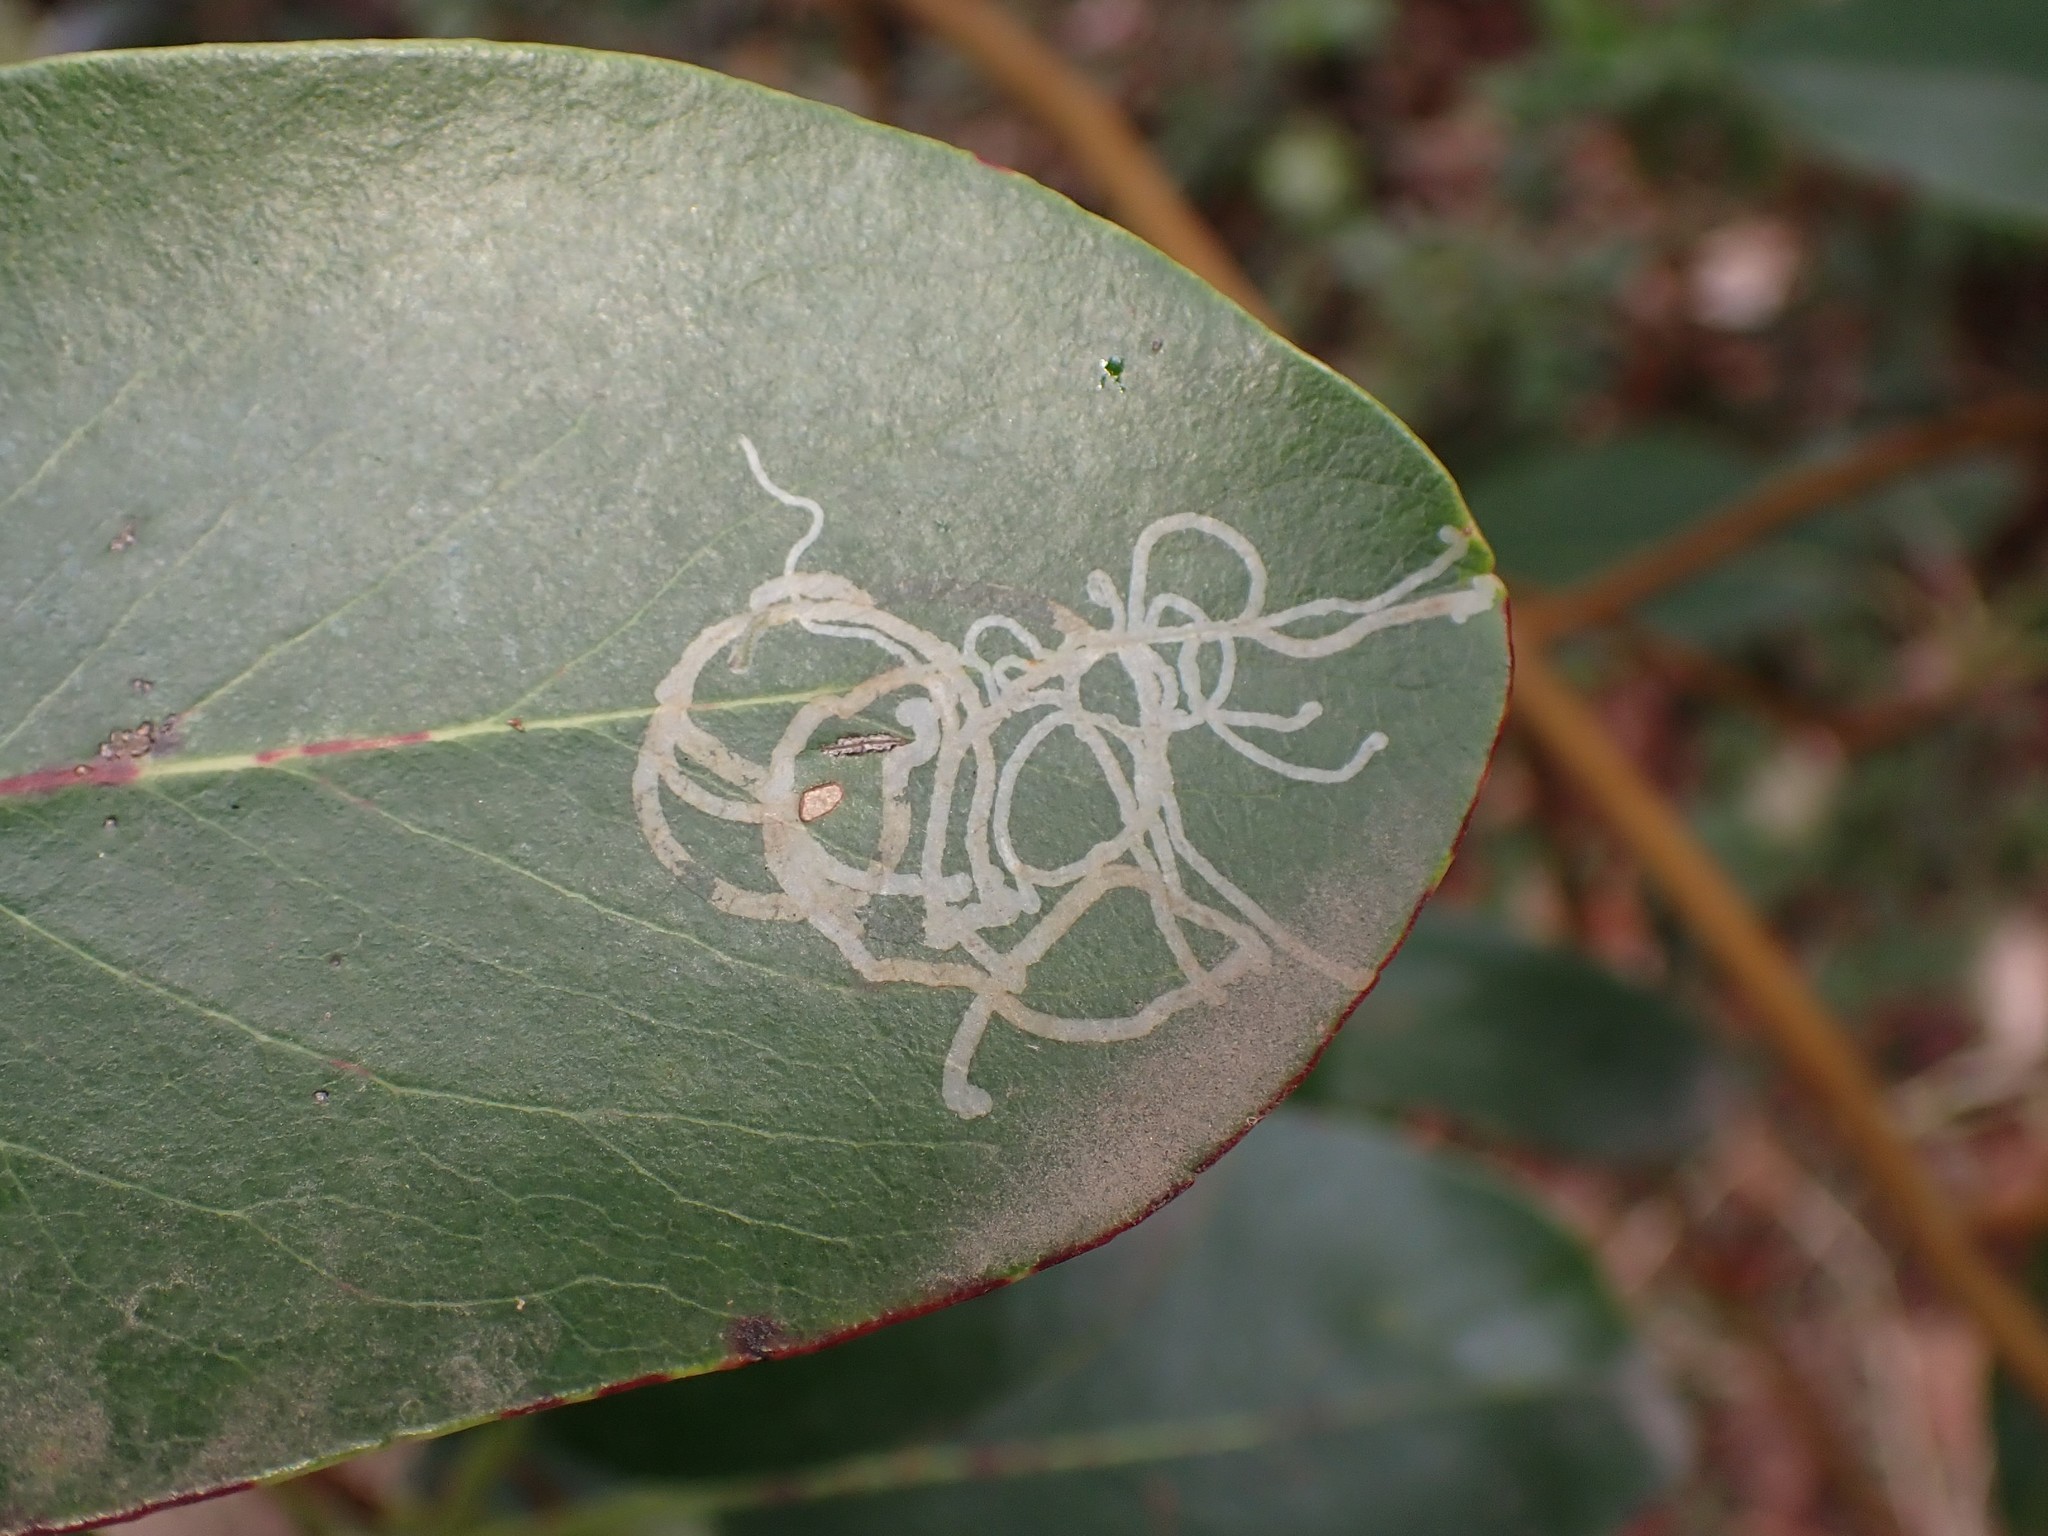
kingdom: Animalia
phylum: Arthropoda
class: Insecta
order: Lepidoptera
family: Gracillariidae
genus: Marmara
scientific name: Marmara arbutiella
